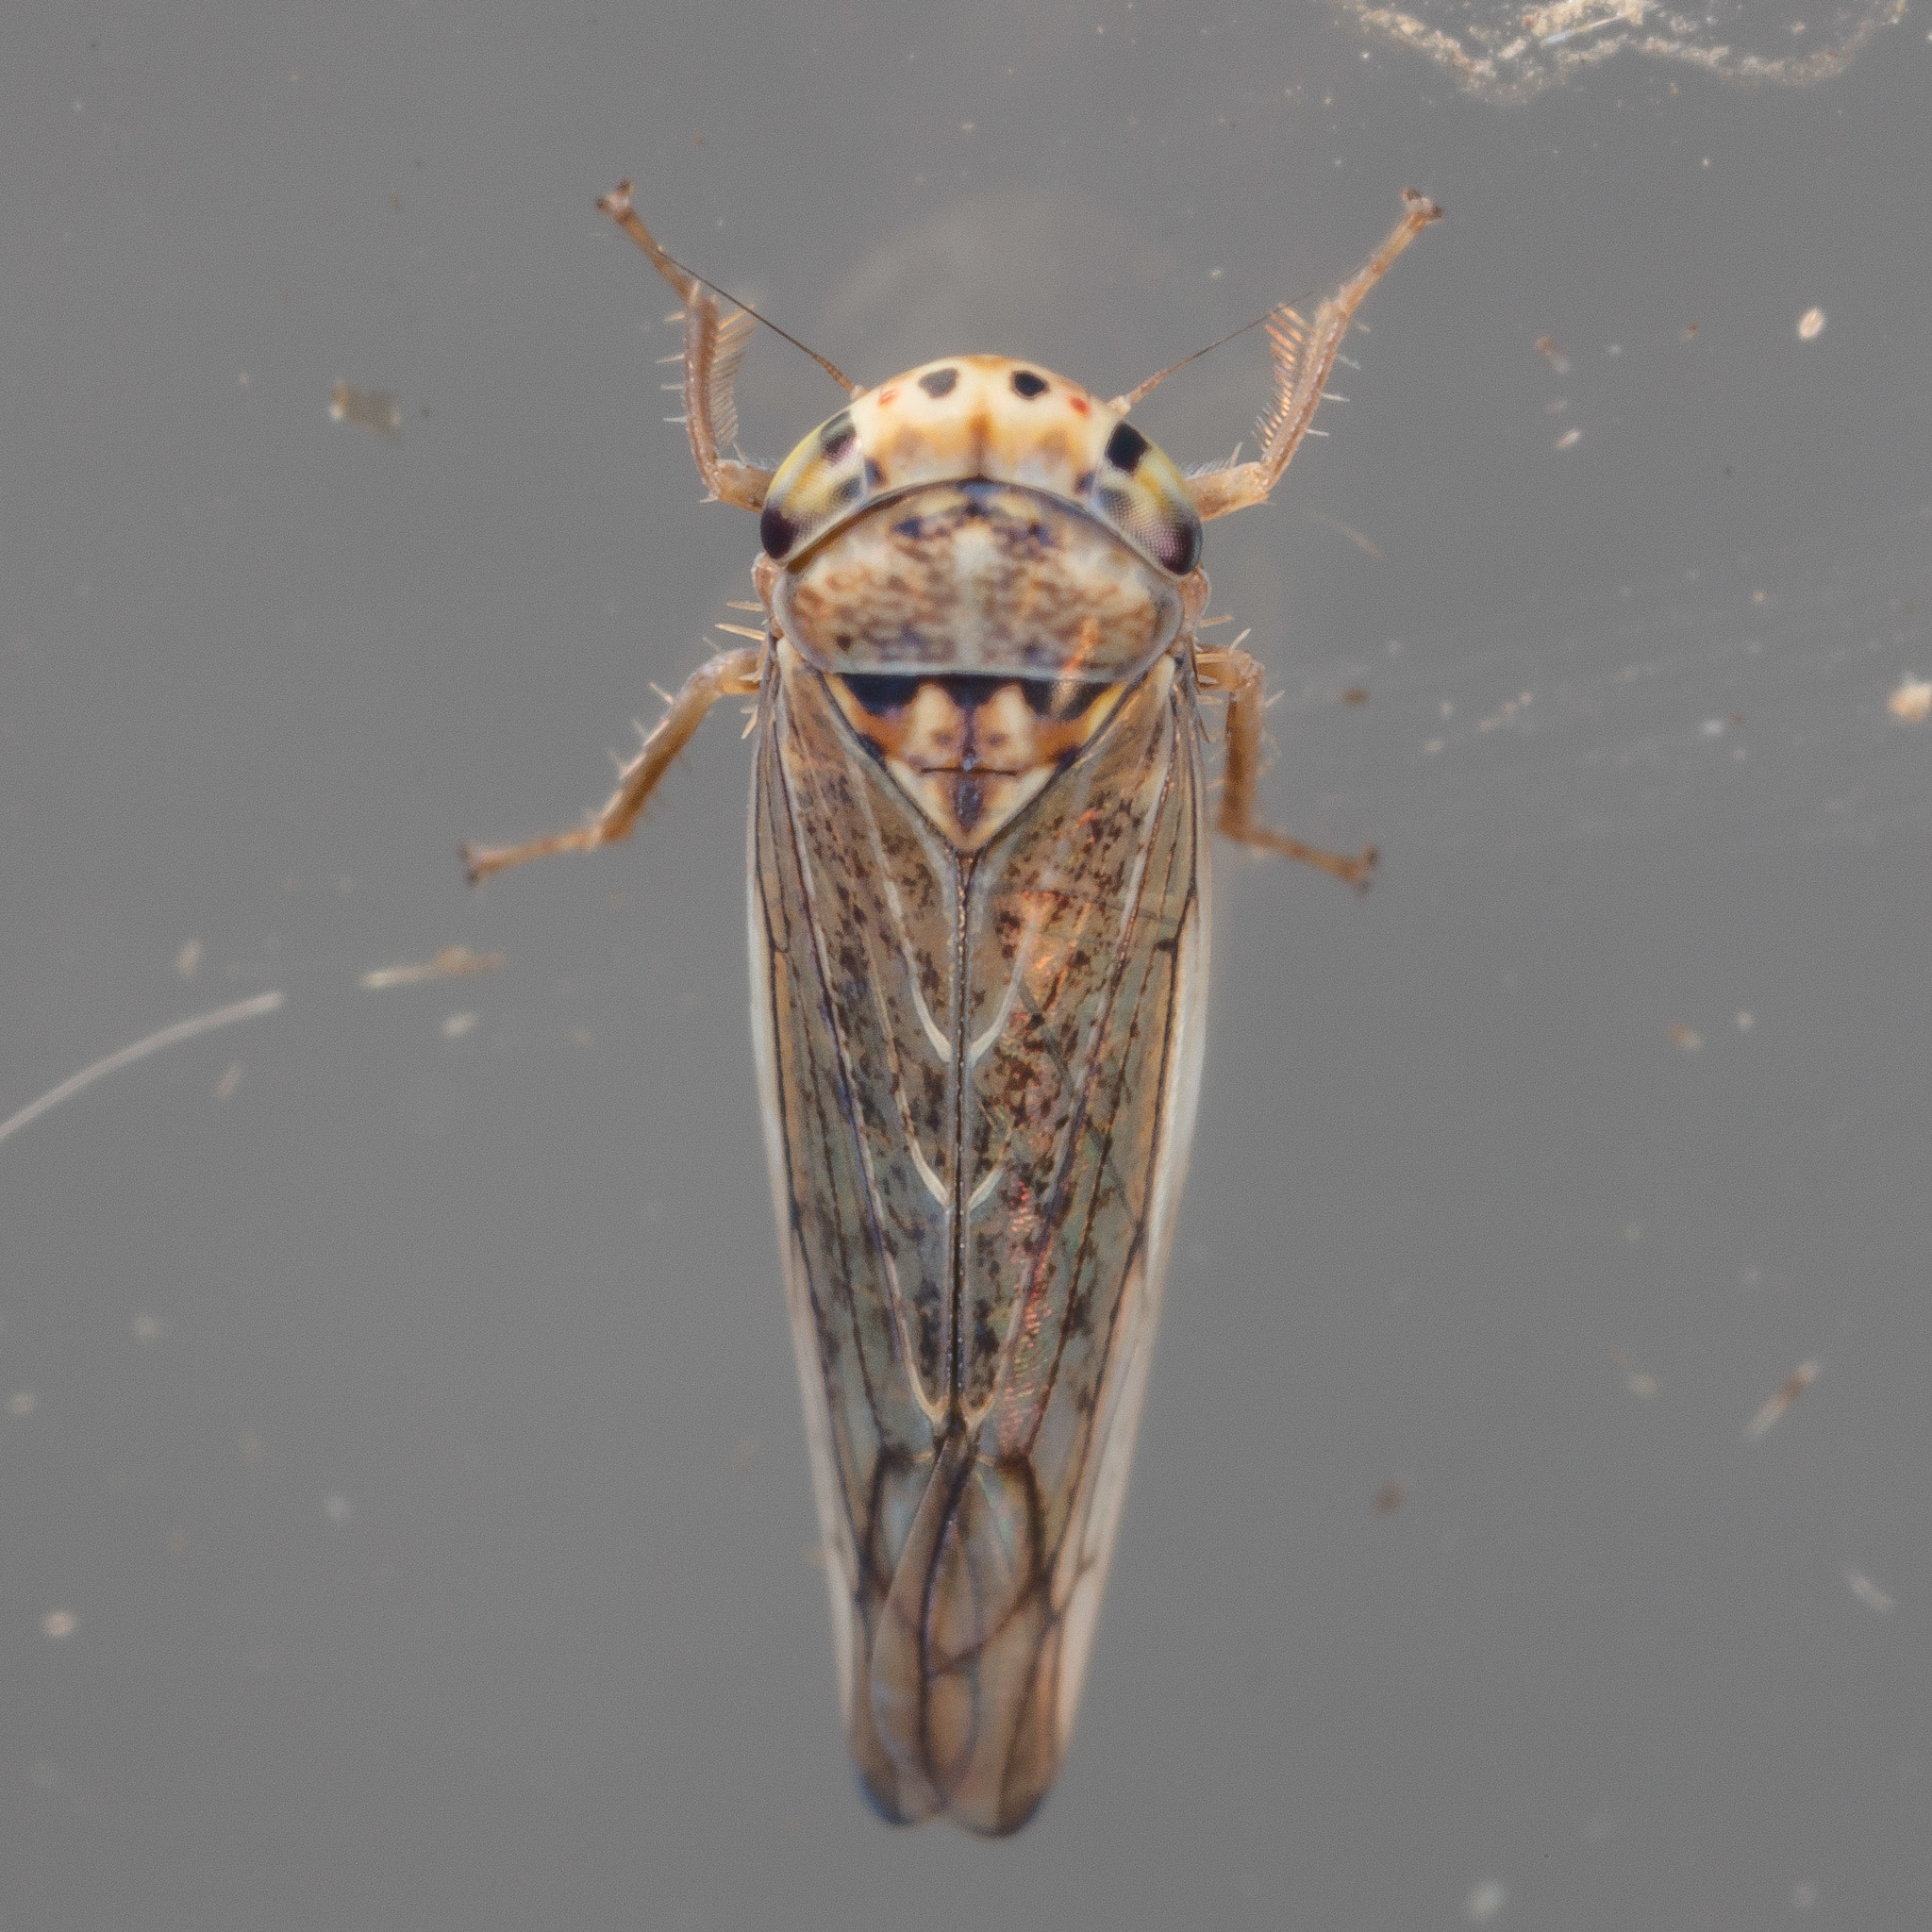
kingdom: Animalia
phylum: Arthropoda
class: Insecta
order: Hemiptera
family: Cicadellidae
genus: Bonneyana
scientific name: Bonneyana osborni
